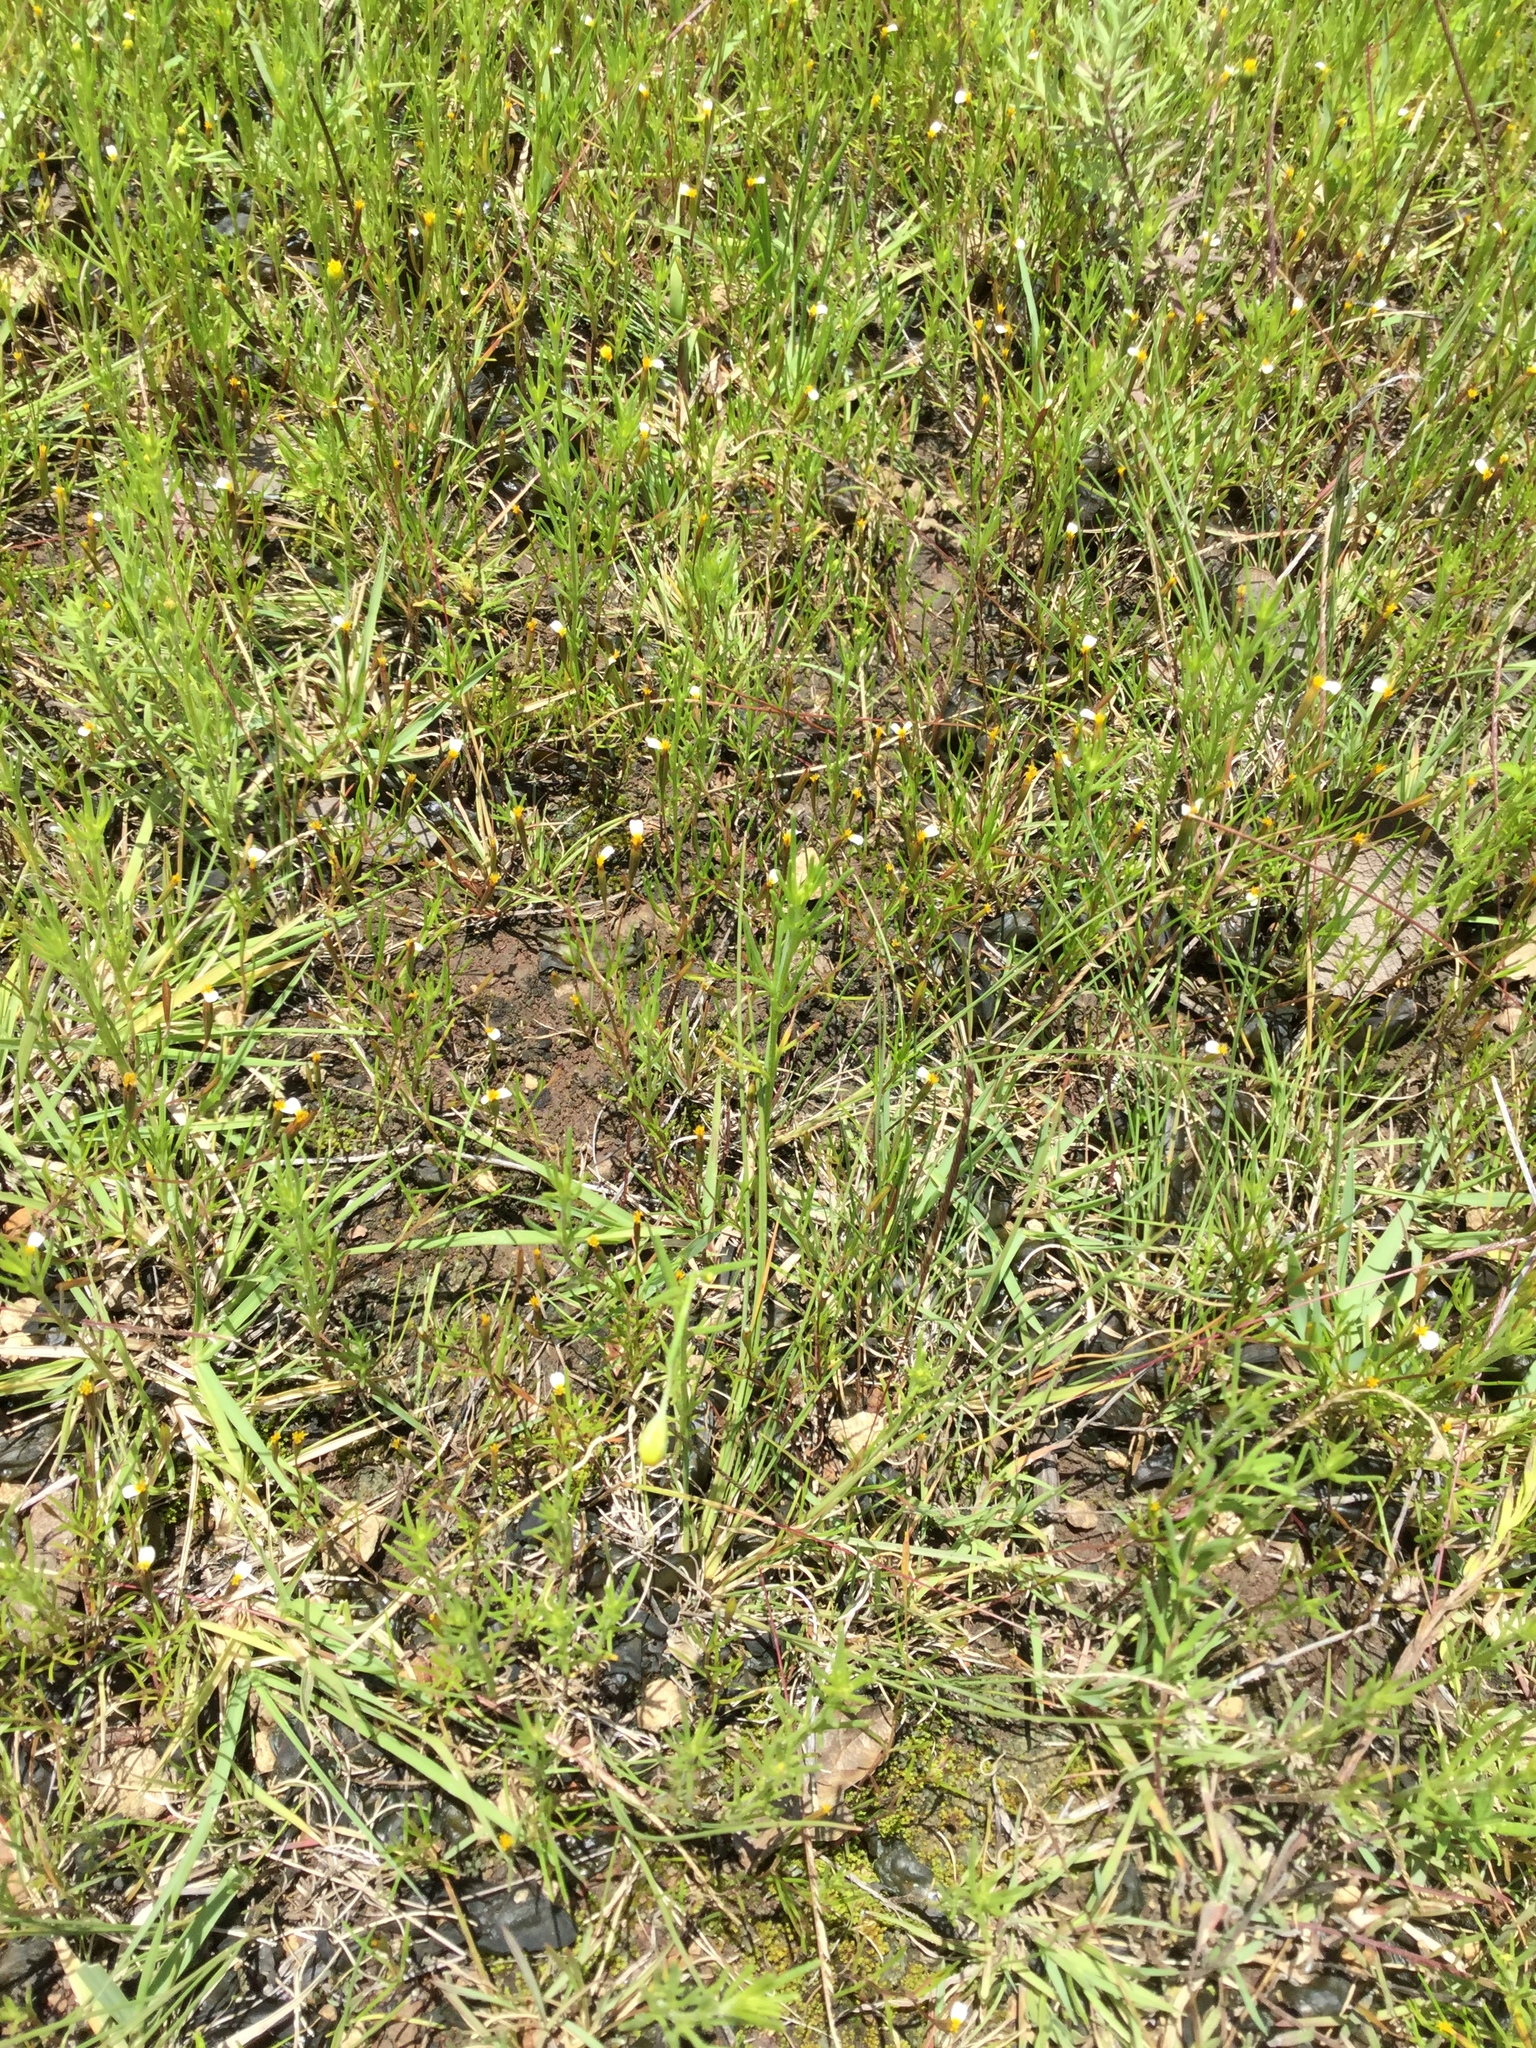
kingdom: Plantae
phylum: Tracheophyta
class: Magnoliopsida
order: Asterales
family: Asteraceae
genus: Tagetes
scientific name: Tagetes micrantha
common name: Licorice marigold
